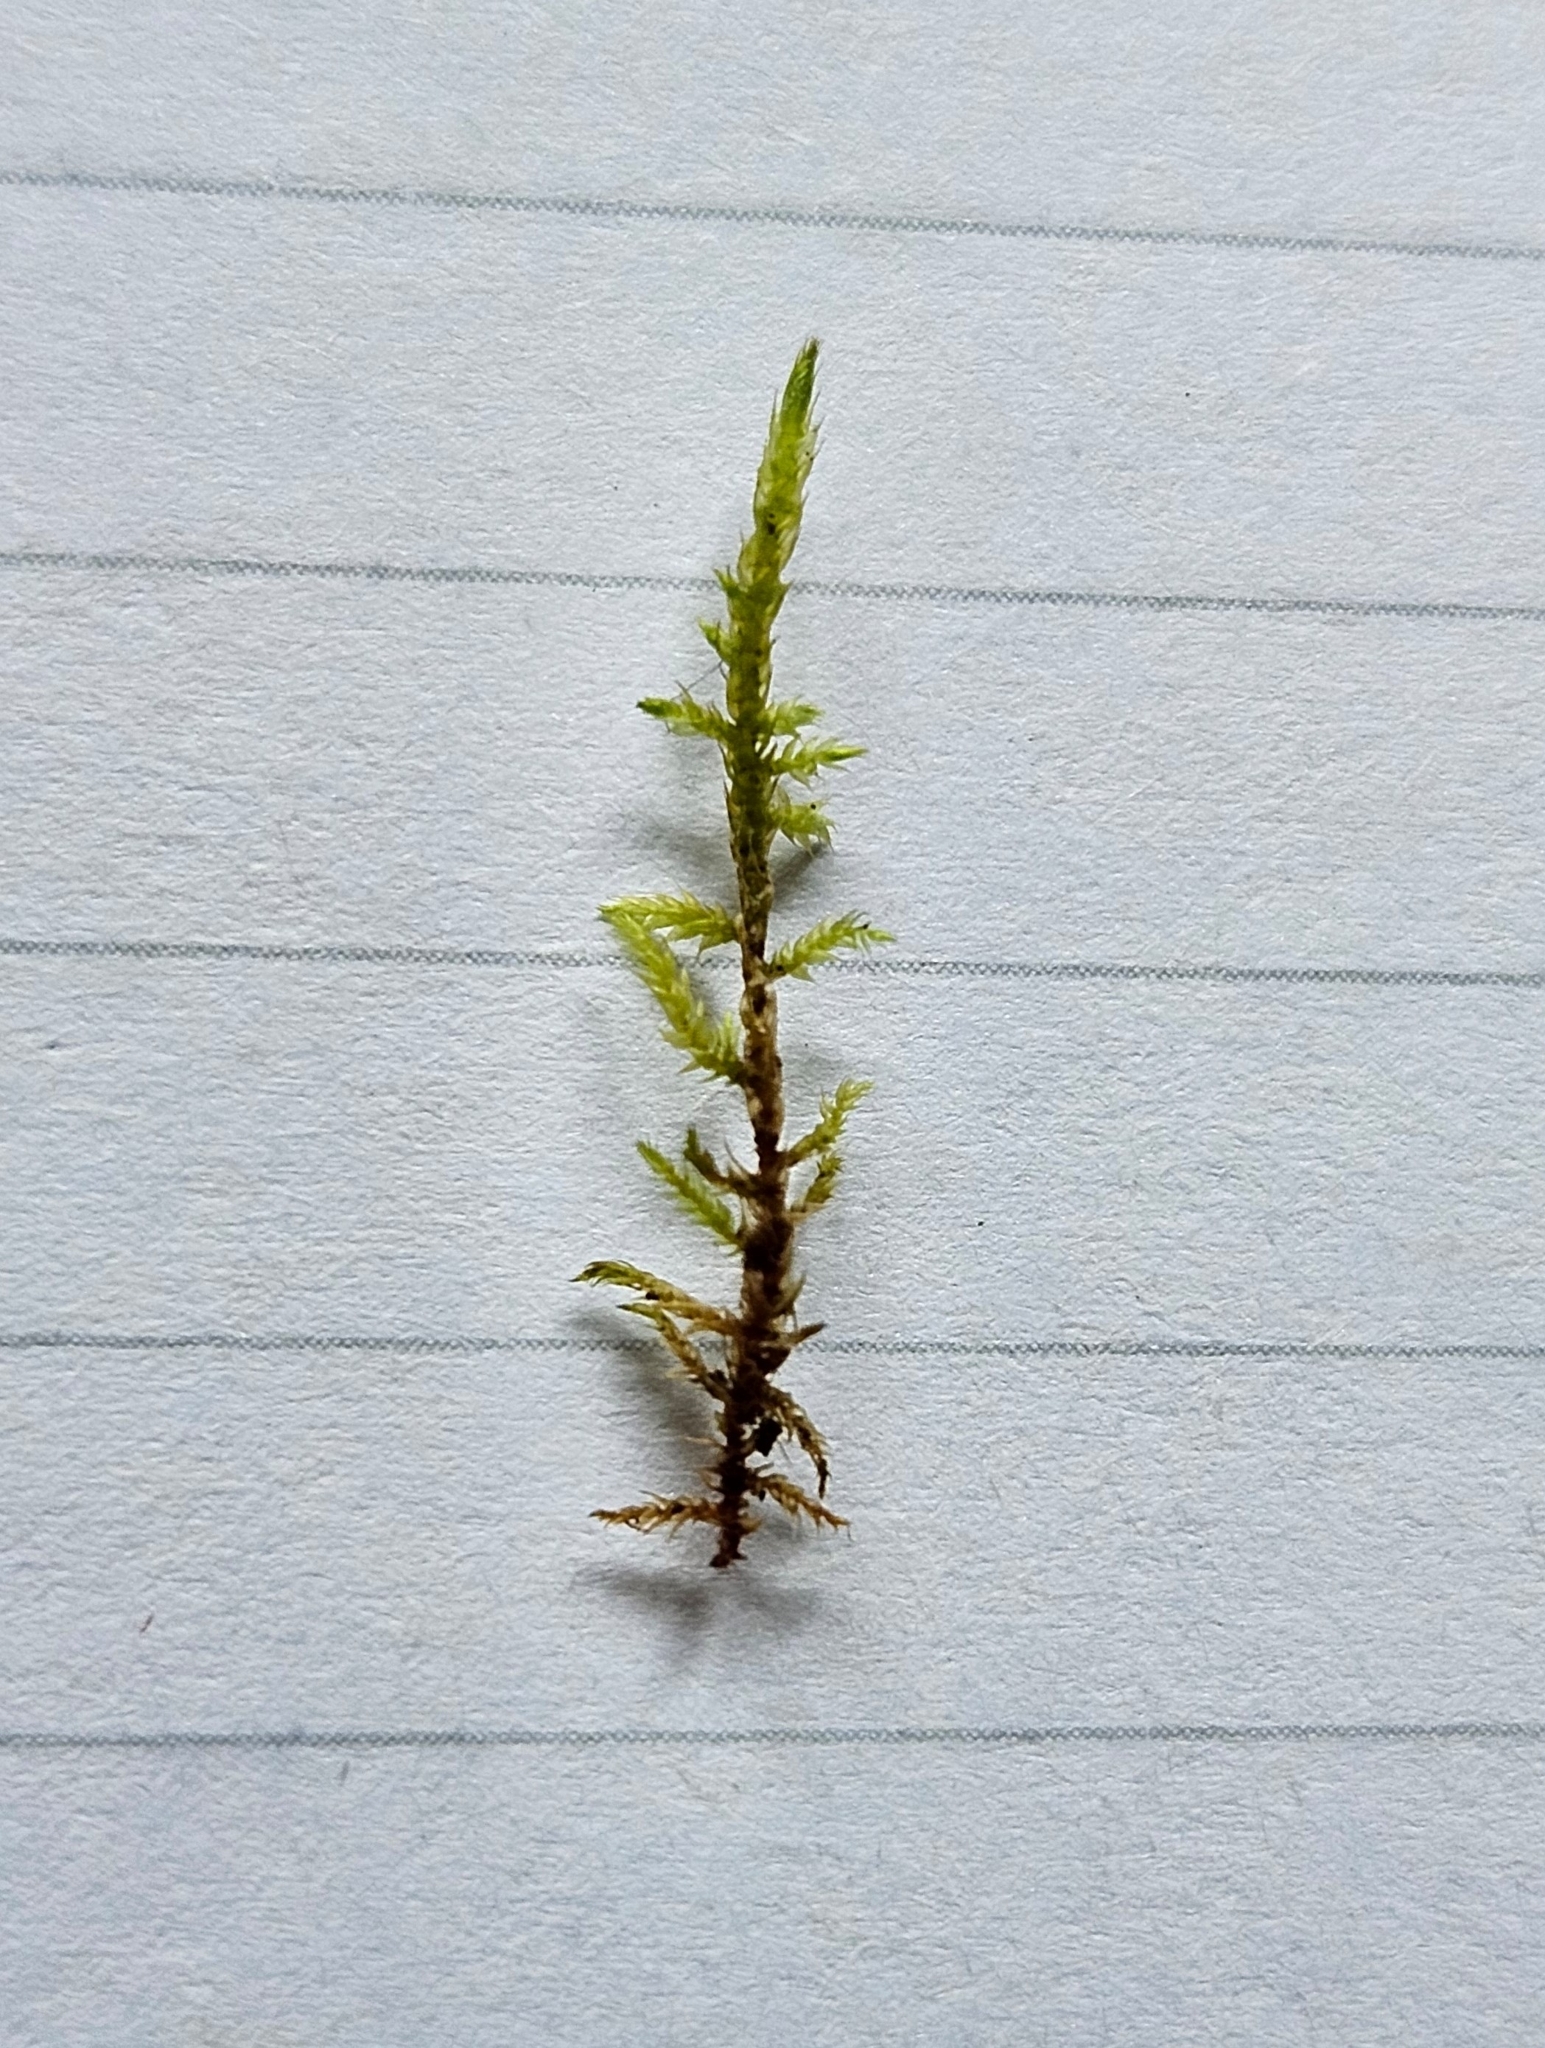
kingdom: Plantae
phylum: Bryophyta
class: Bryopsida
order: Hypnales
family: Amblystegiaceae
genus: Cratoneuron
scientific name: Cratoneuron filicinum
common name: Fern-leaved hook moss
